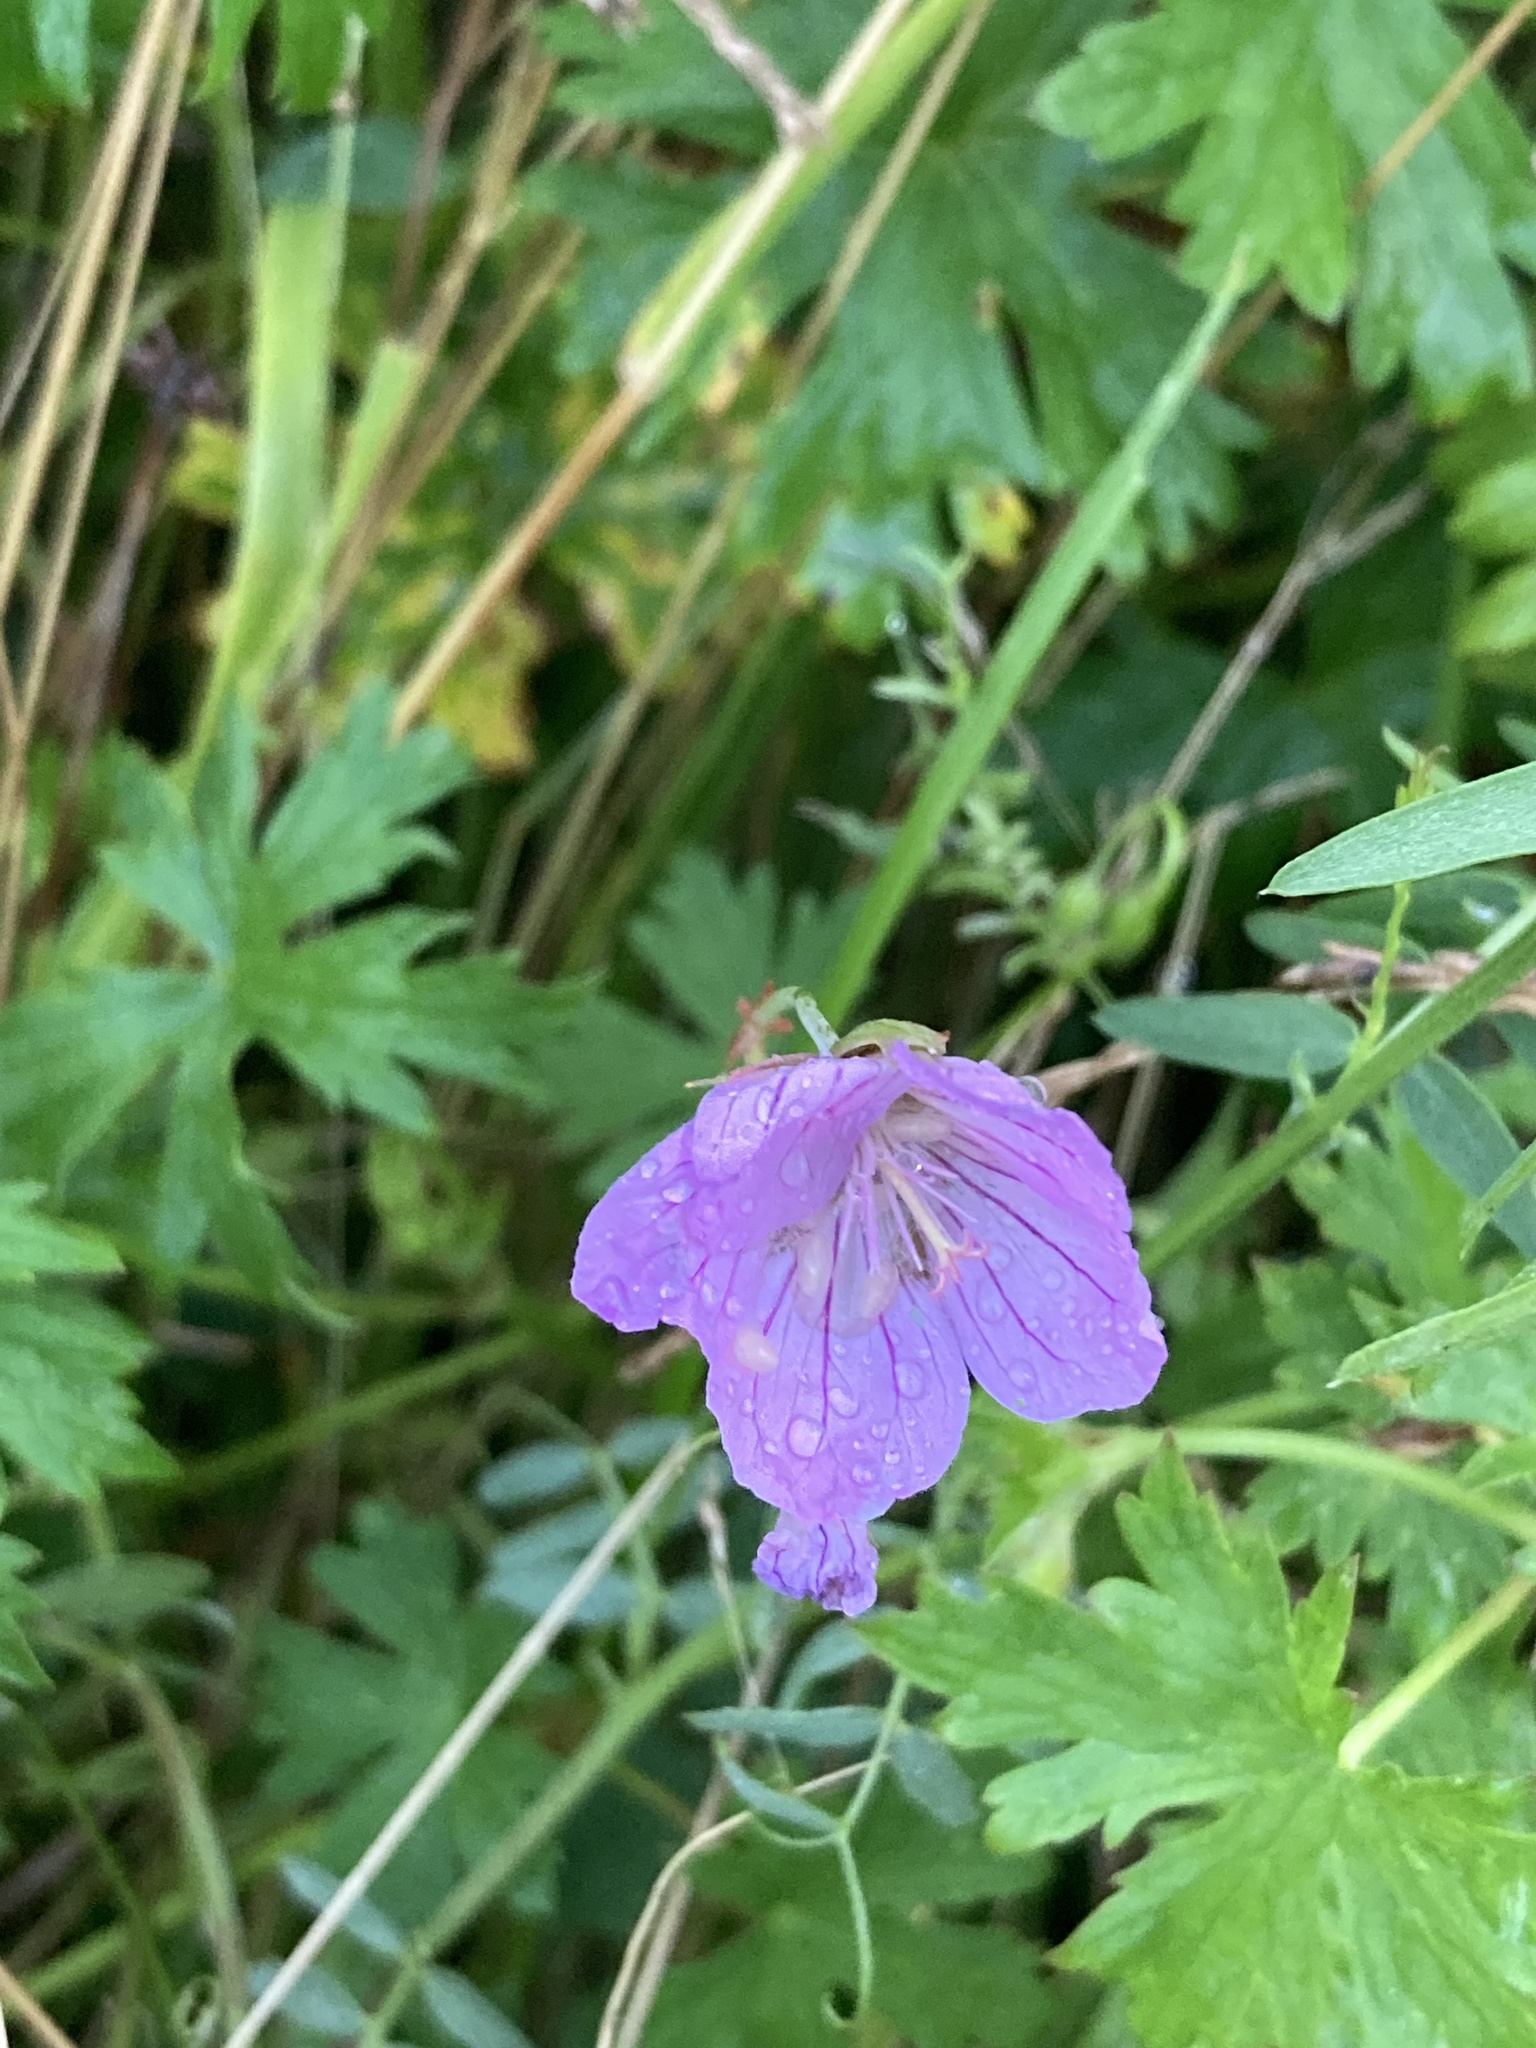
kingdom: Plantae
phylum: Tracheophyta
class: Magnoliopsida
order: Geraniales
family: Geraniaceae
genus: Geranium
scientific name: Geranium collinum
